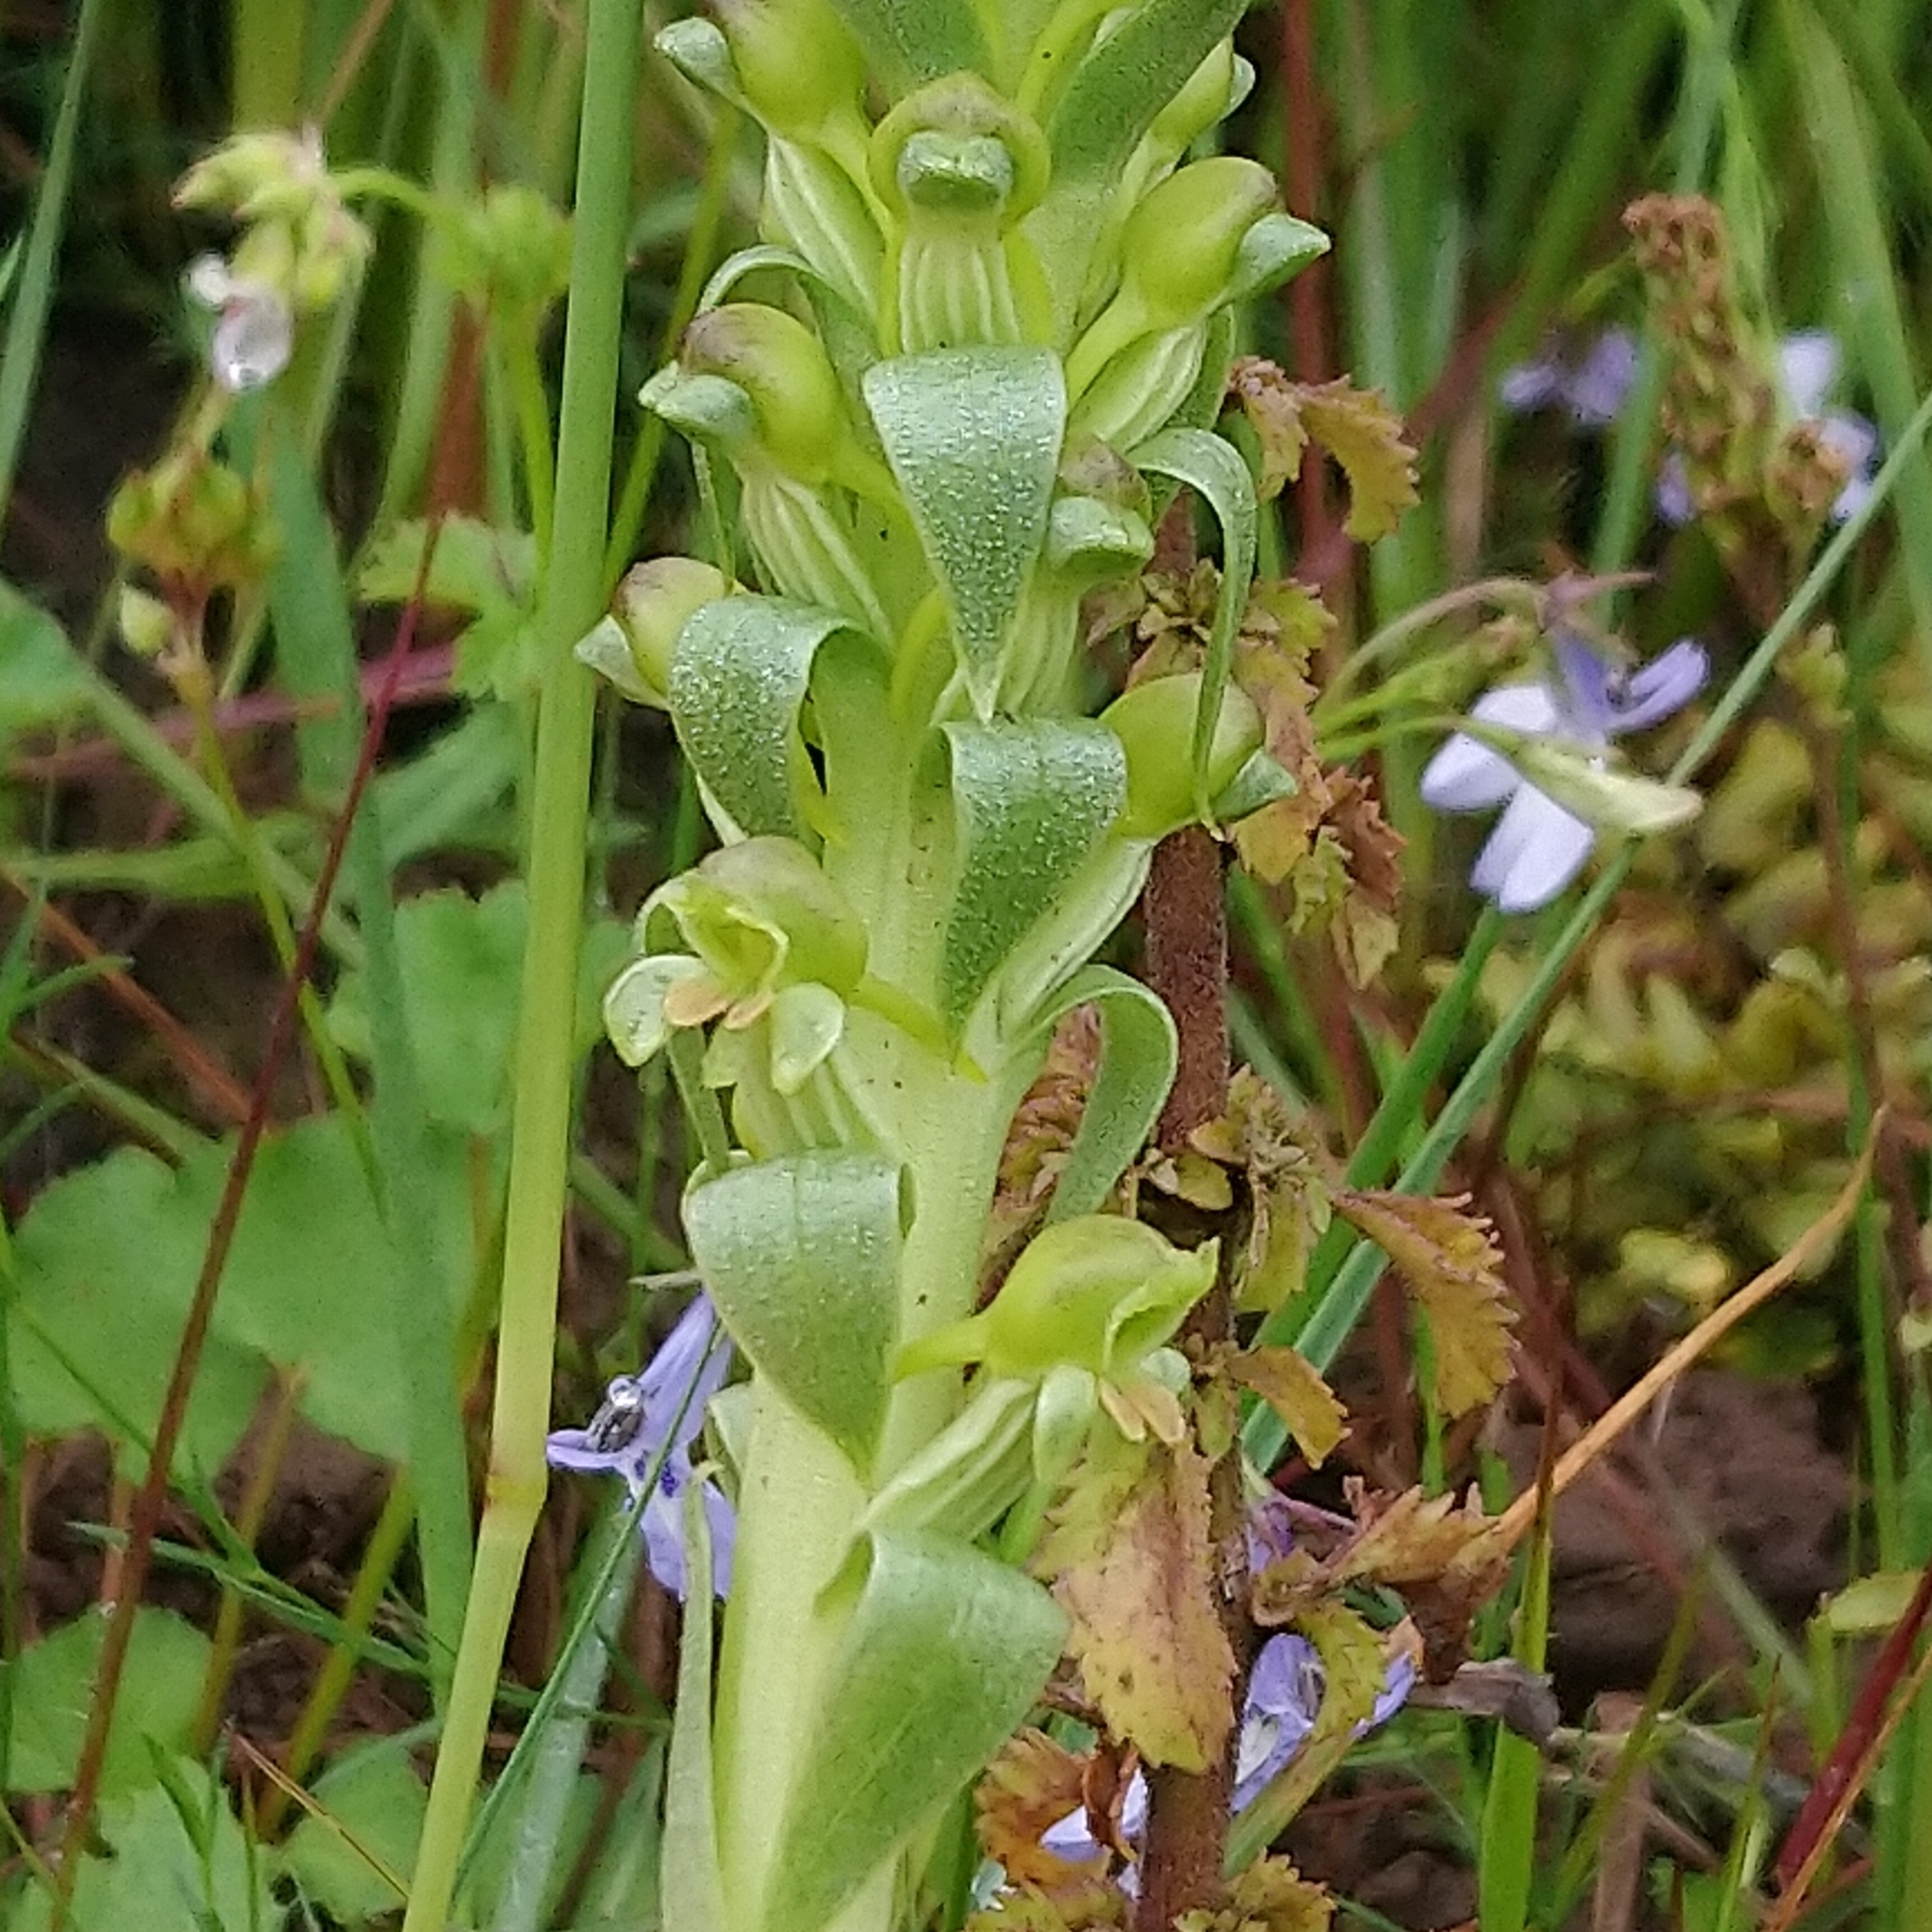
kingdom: Plantae
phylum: Tracheophyta
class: Liliopsida
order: Asparagales
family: Orchidaceae
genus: Satyrium
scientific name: Satyrium parviflorum
